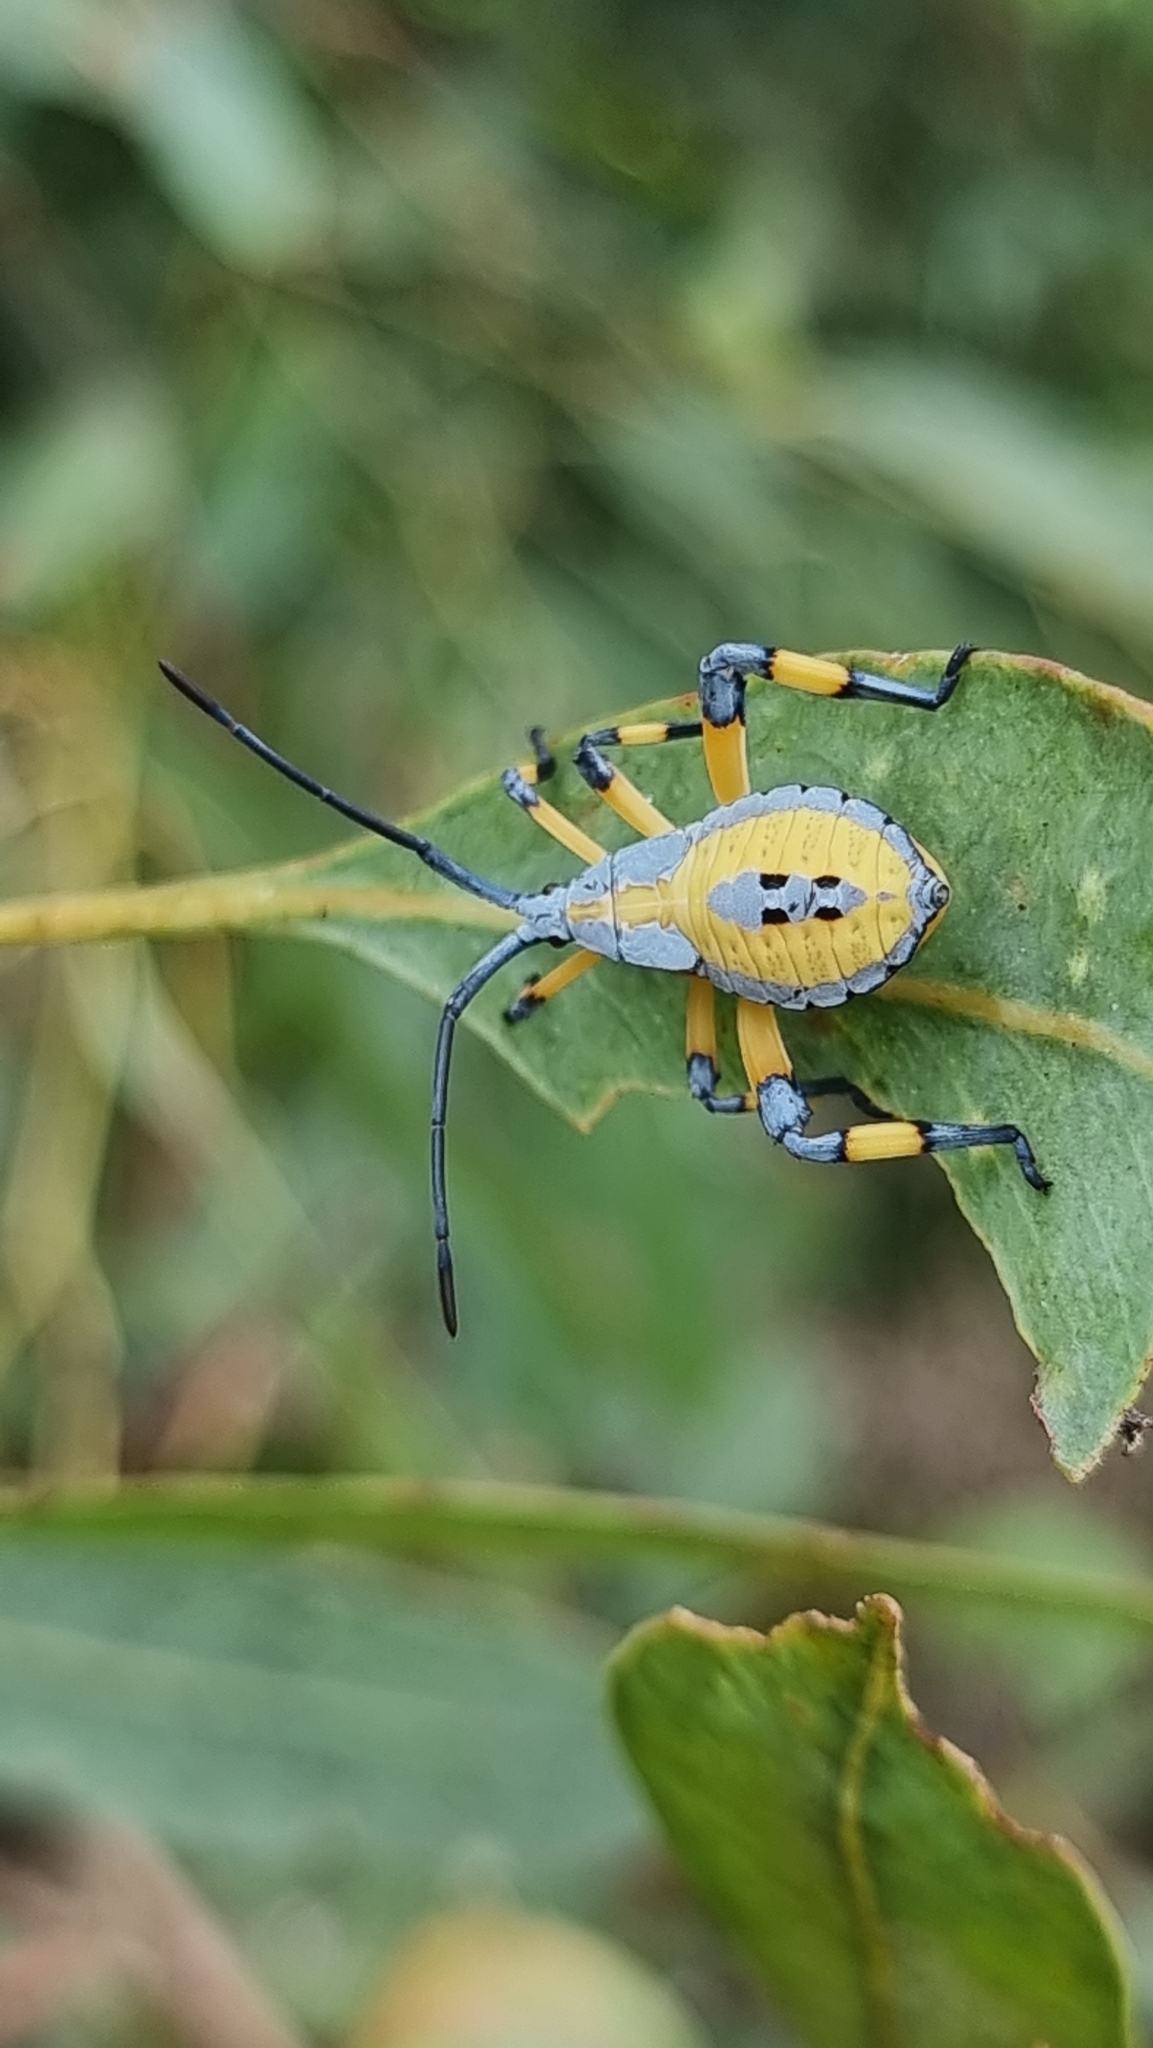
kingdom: Animalia
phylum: Arthropoda
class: Insecta
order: Hemiptera
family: Coreidae
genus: Amorbus
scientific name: Amorbus robustus
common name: Common gum-tree bug
